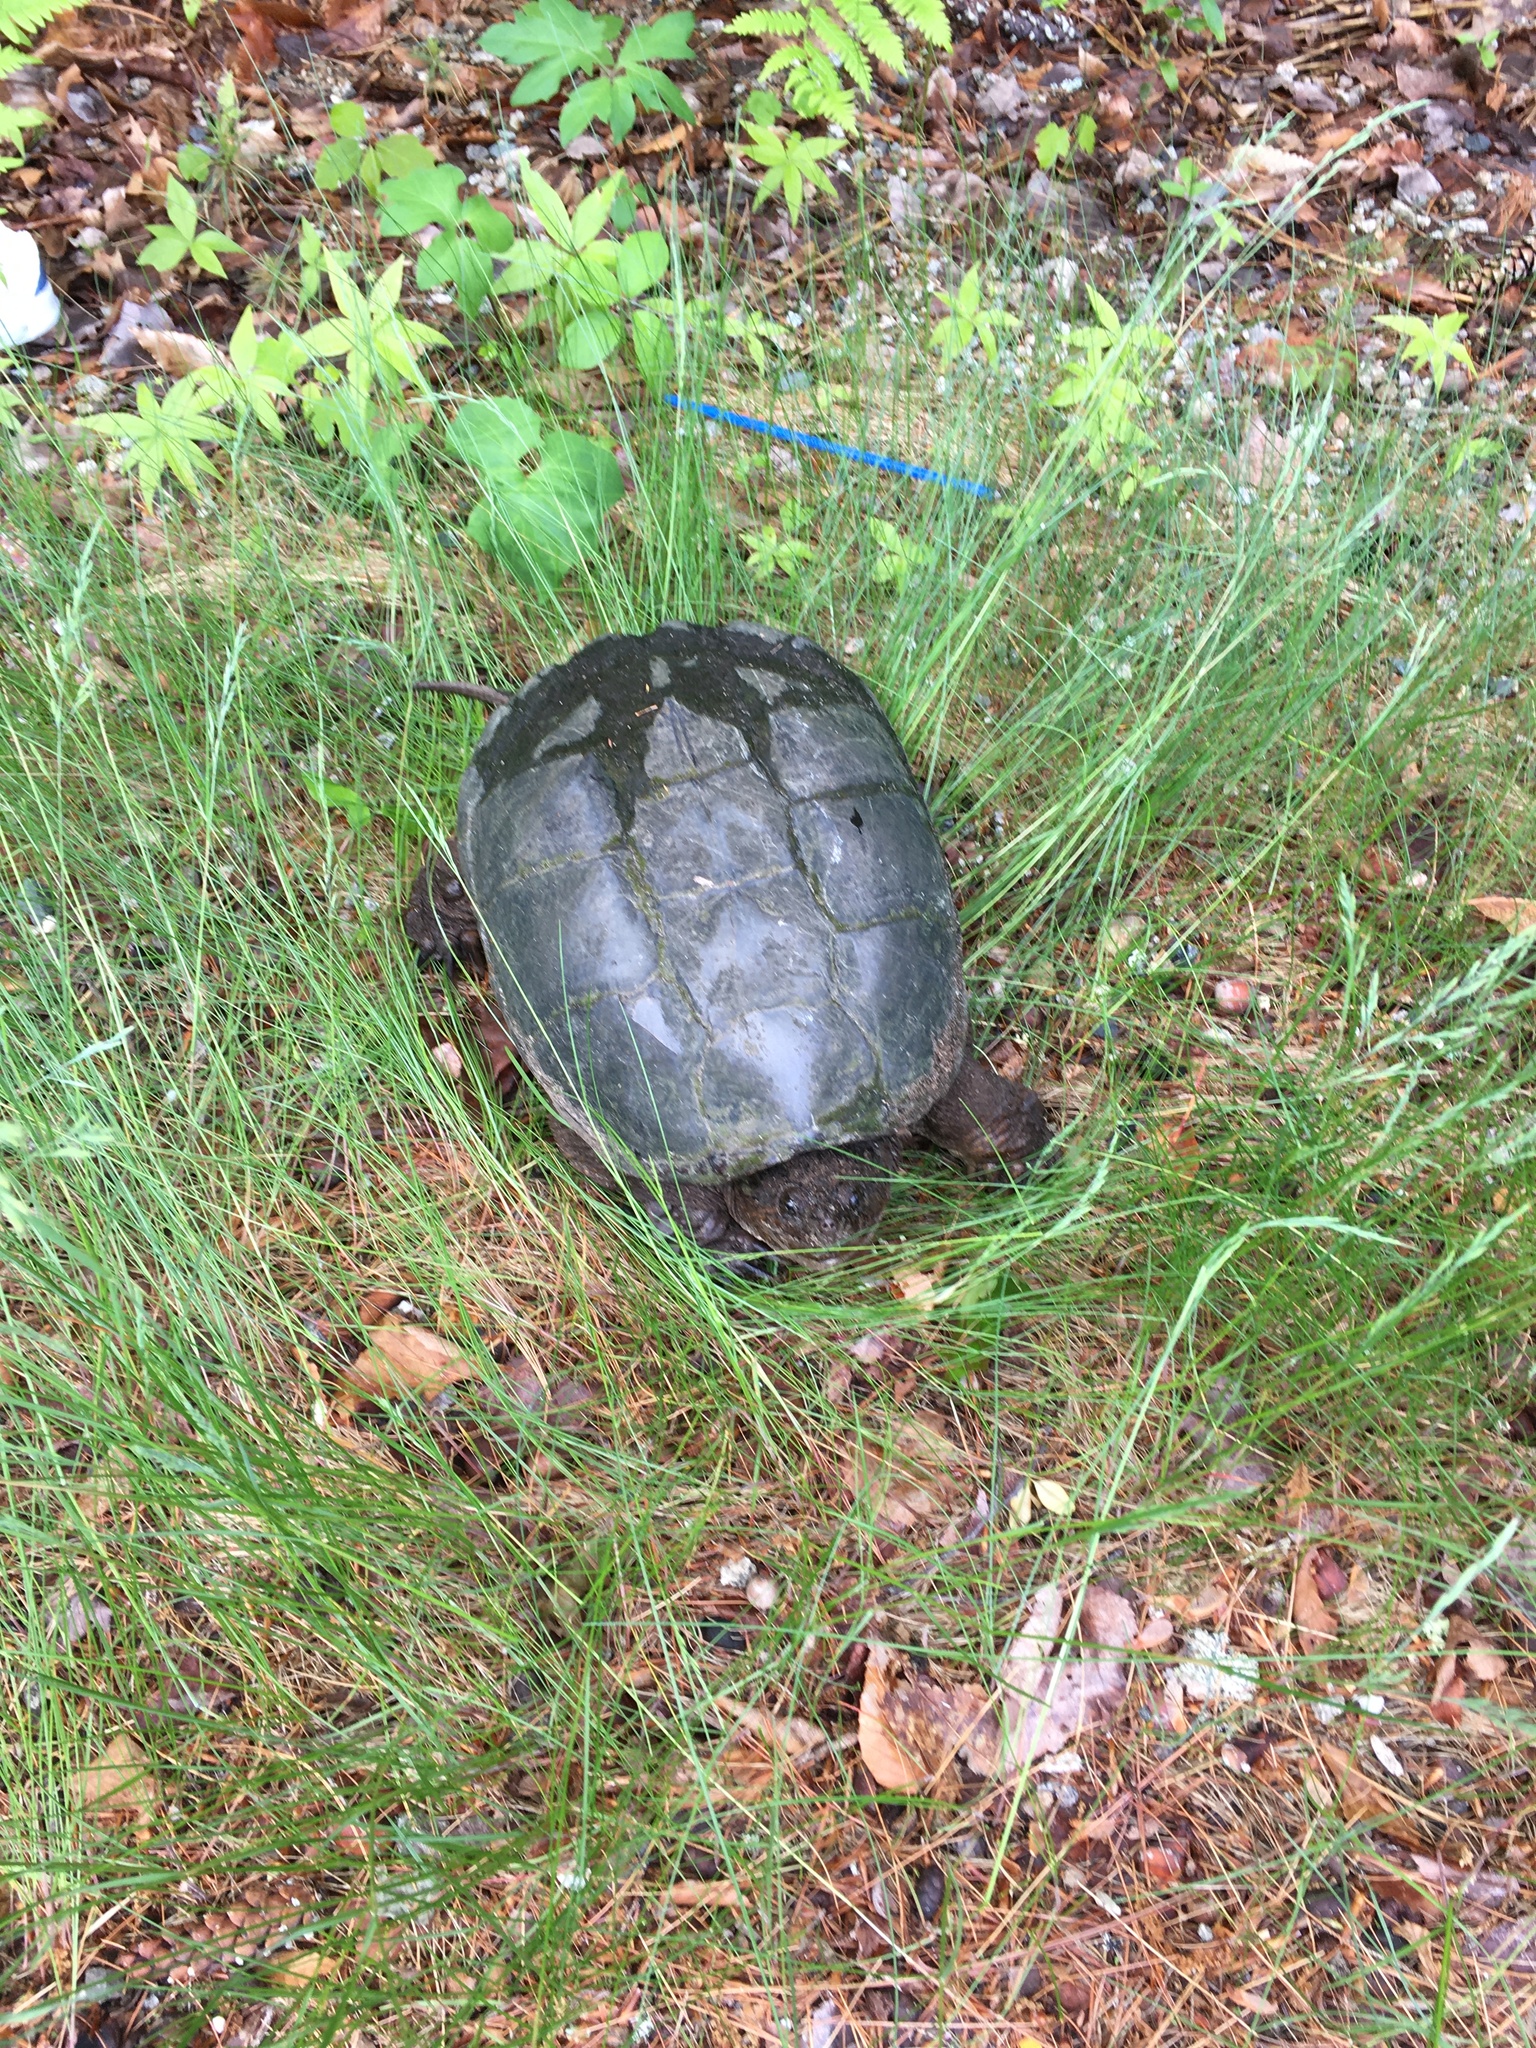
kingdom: Animalia
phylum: Chordata
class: Testudines
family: Chelydridae
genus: Chelydra
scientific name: Chelydra serpentina
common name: Common snapping turtle
